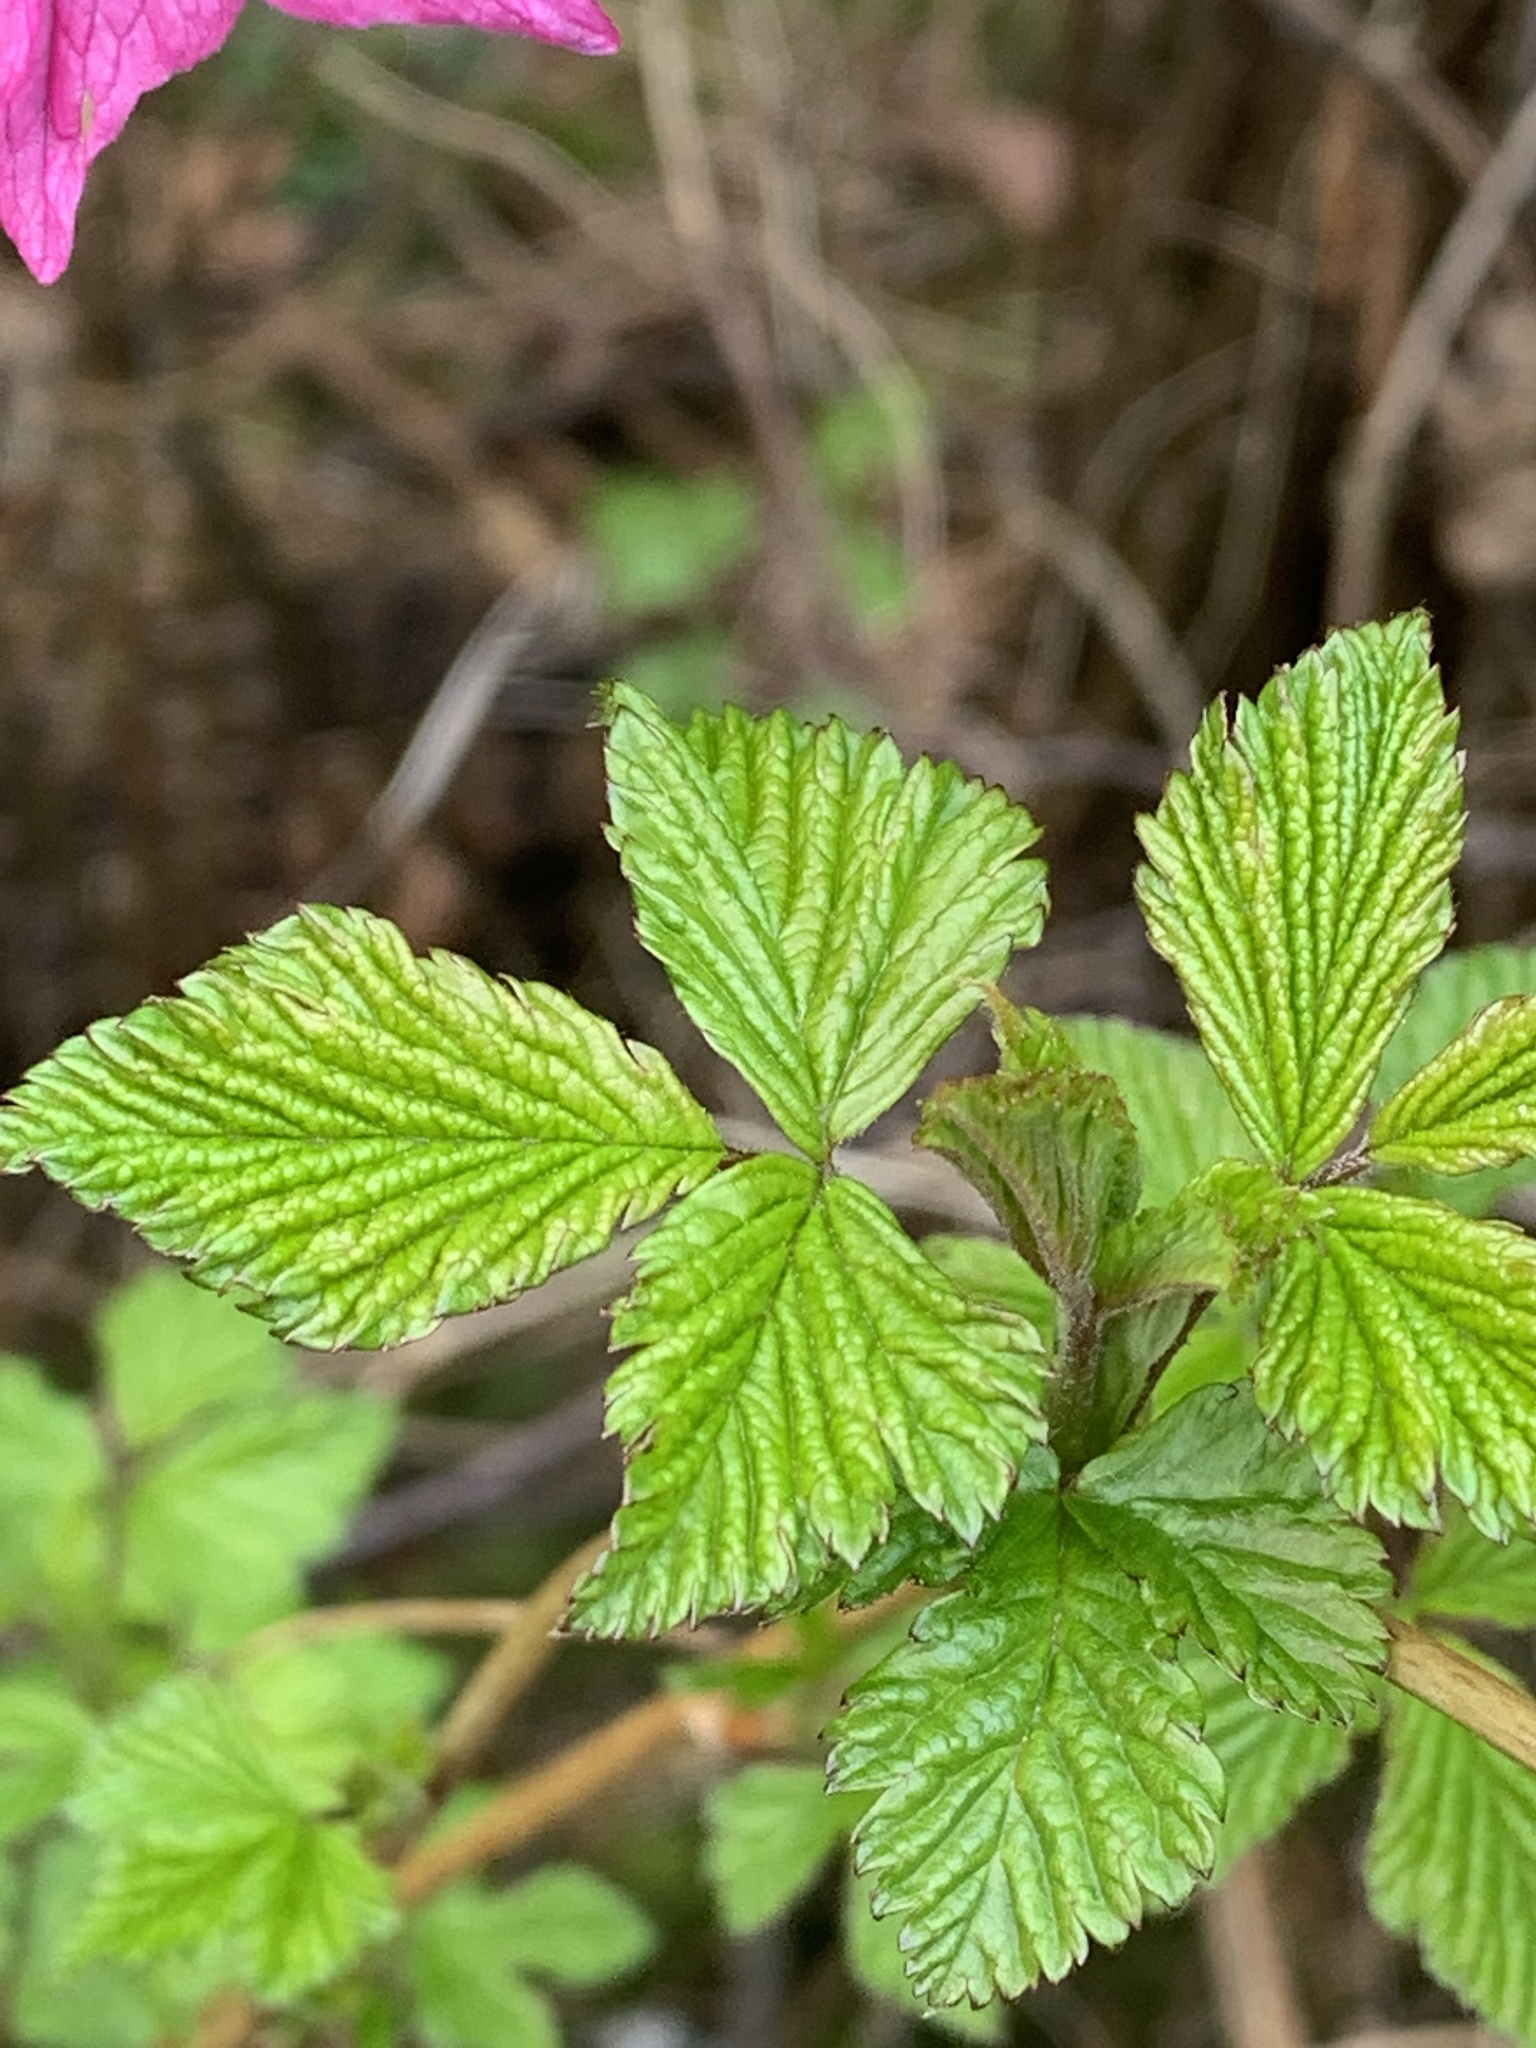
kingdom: Plantae
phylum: Tracheophyta
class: Magnoliopsida
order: Rosales
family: Rosaceae
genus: Rubus
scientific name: Rubus spectabilis
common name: Salmonberry
